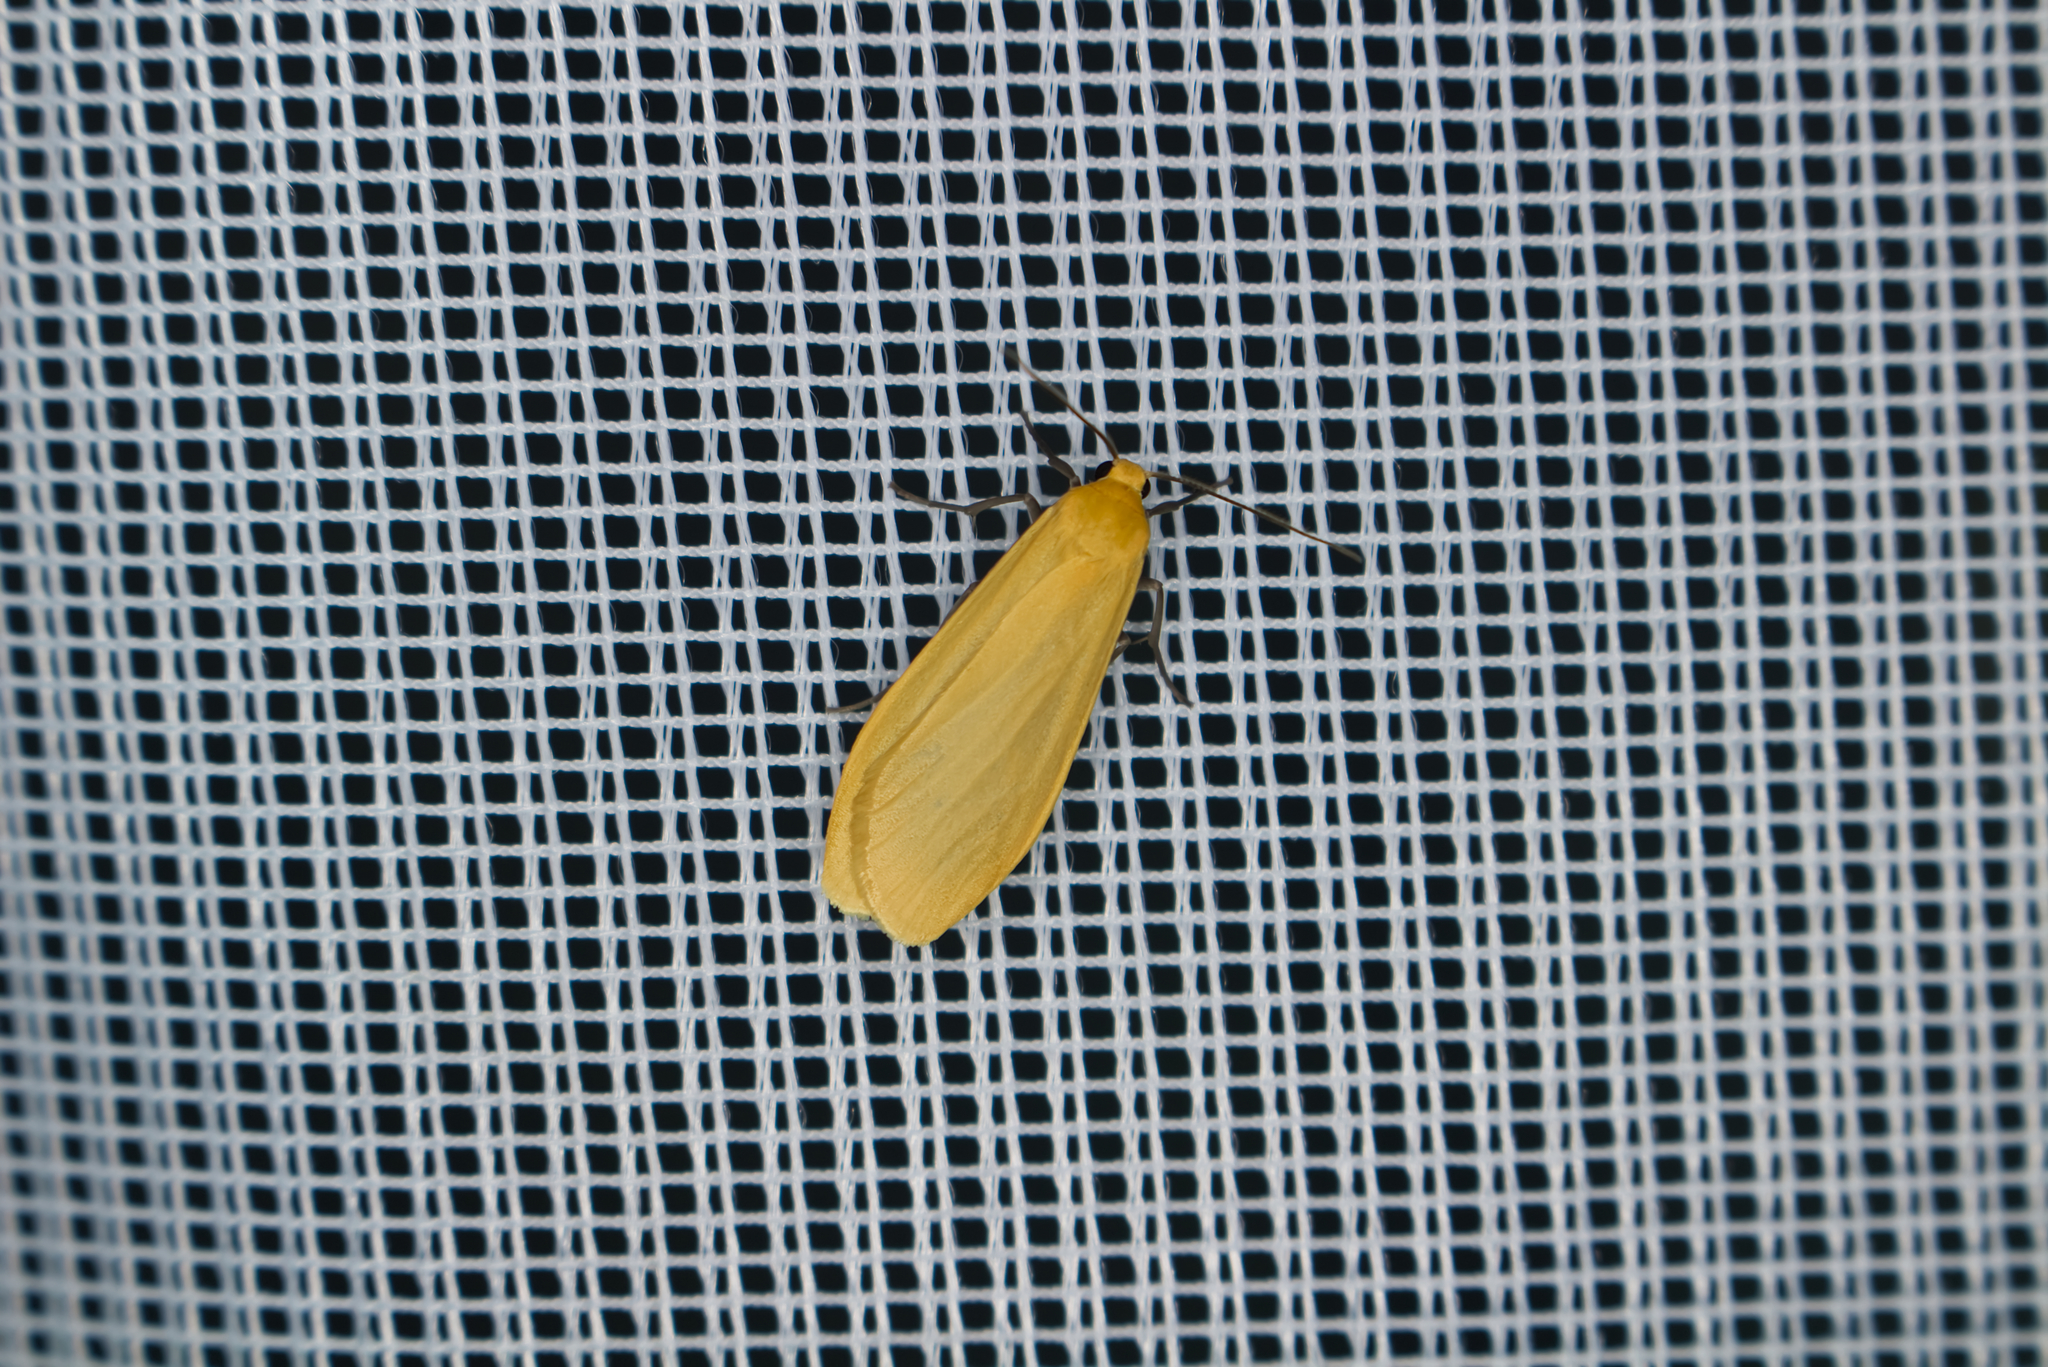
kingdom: Animalia
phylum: Arthropoda
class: Insecta
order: Lepidoptera
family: Erebidae
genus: Wittia
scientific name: Wittia sororcula
